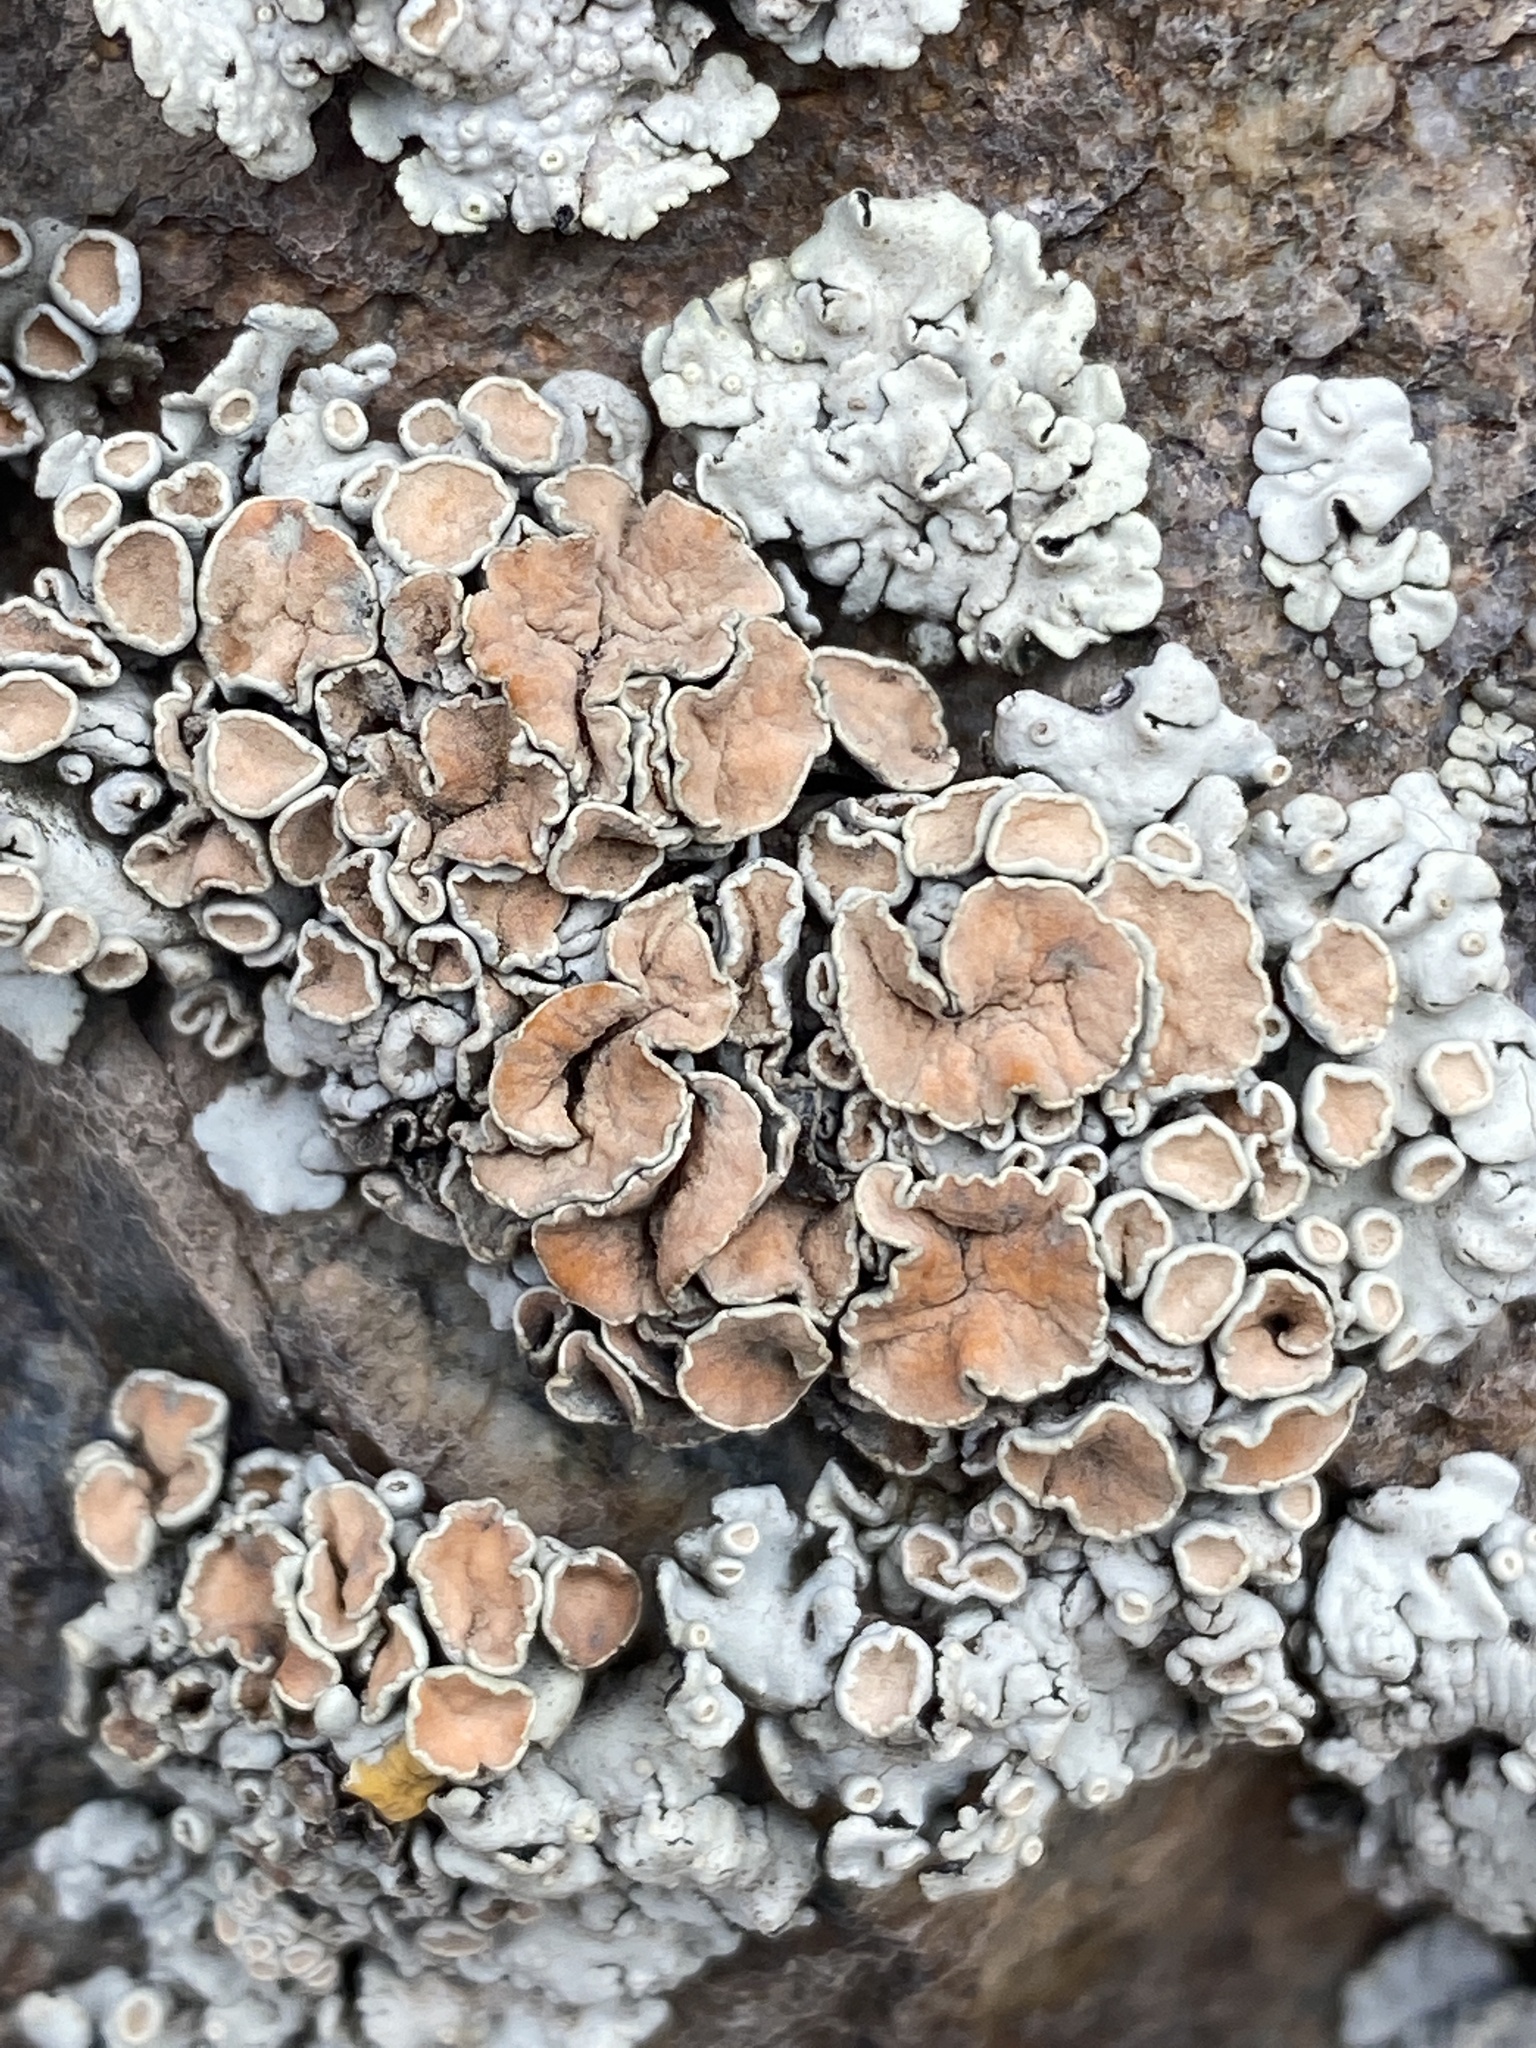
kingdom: Fungi
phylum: Ascomycota
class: Lecanoromycetes
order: Lecanorales
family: Lecanoraceae
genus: Omphalodina
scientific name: Omphalodina chrysoleuca
